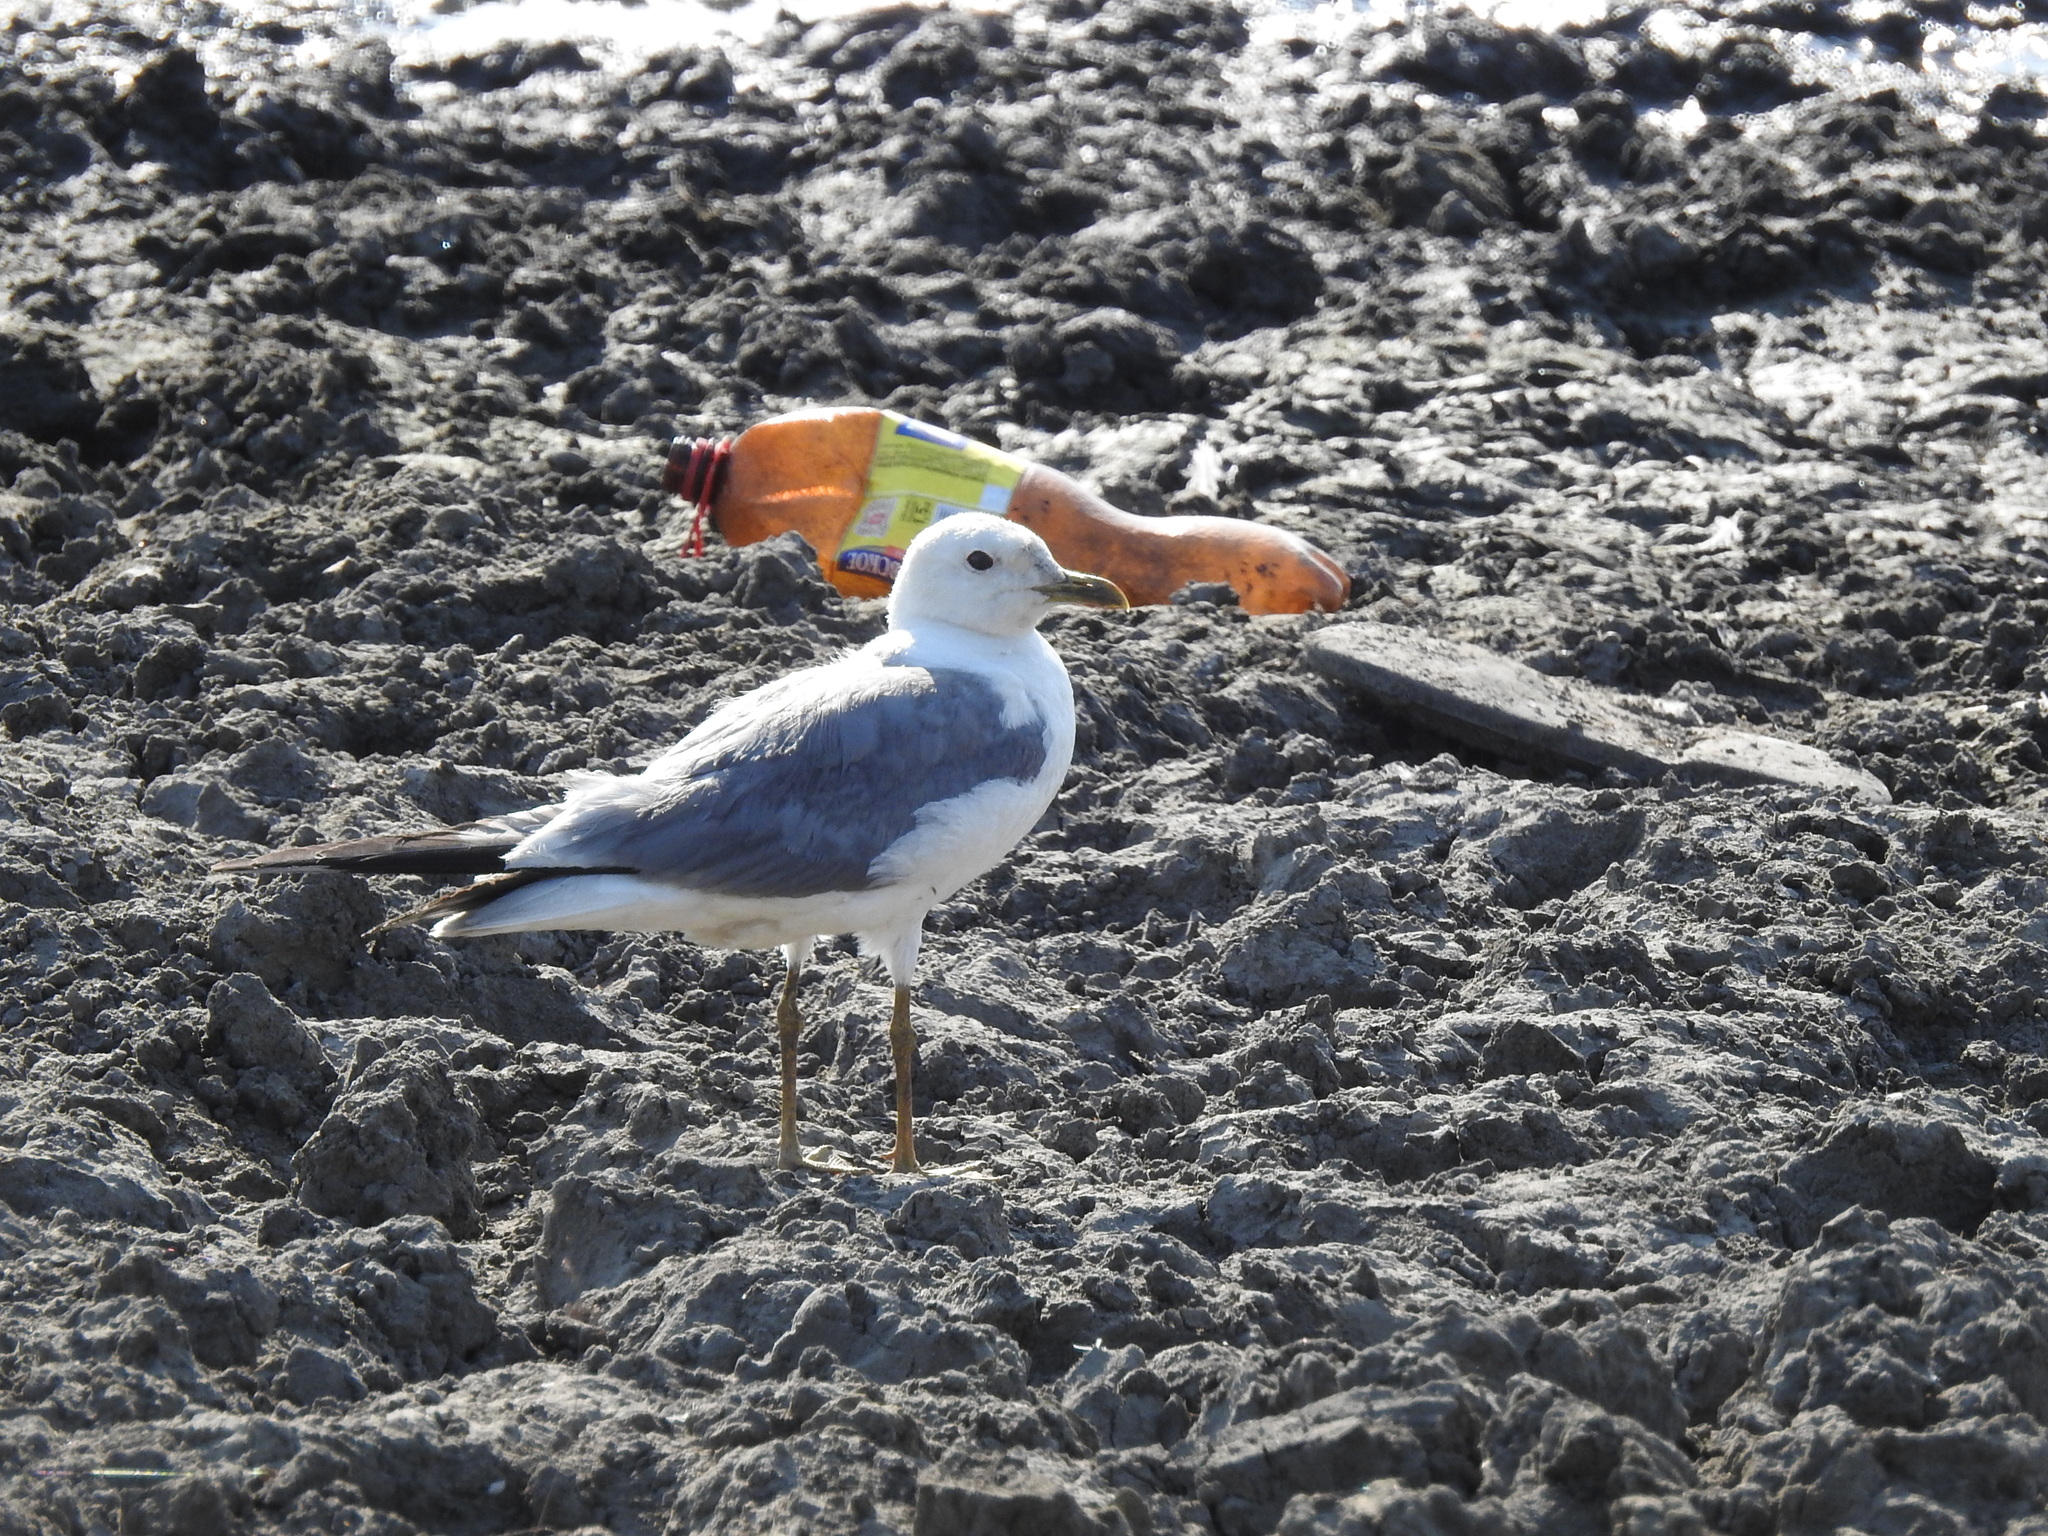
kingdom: Animalia
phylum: Chordata
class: Aves
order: Charadriiformes
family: Laridae
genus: Larus
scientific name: Larus canus
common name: Mew gull
